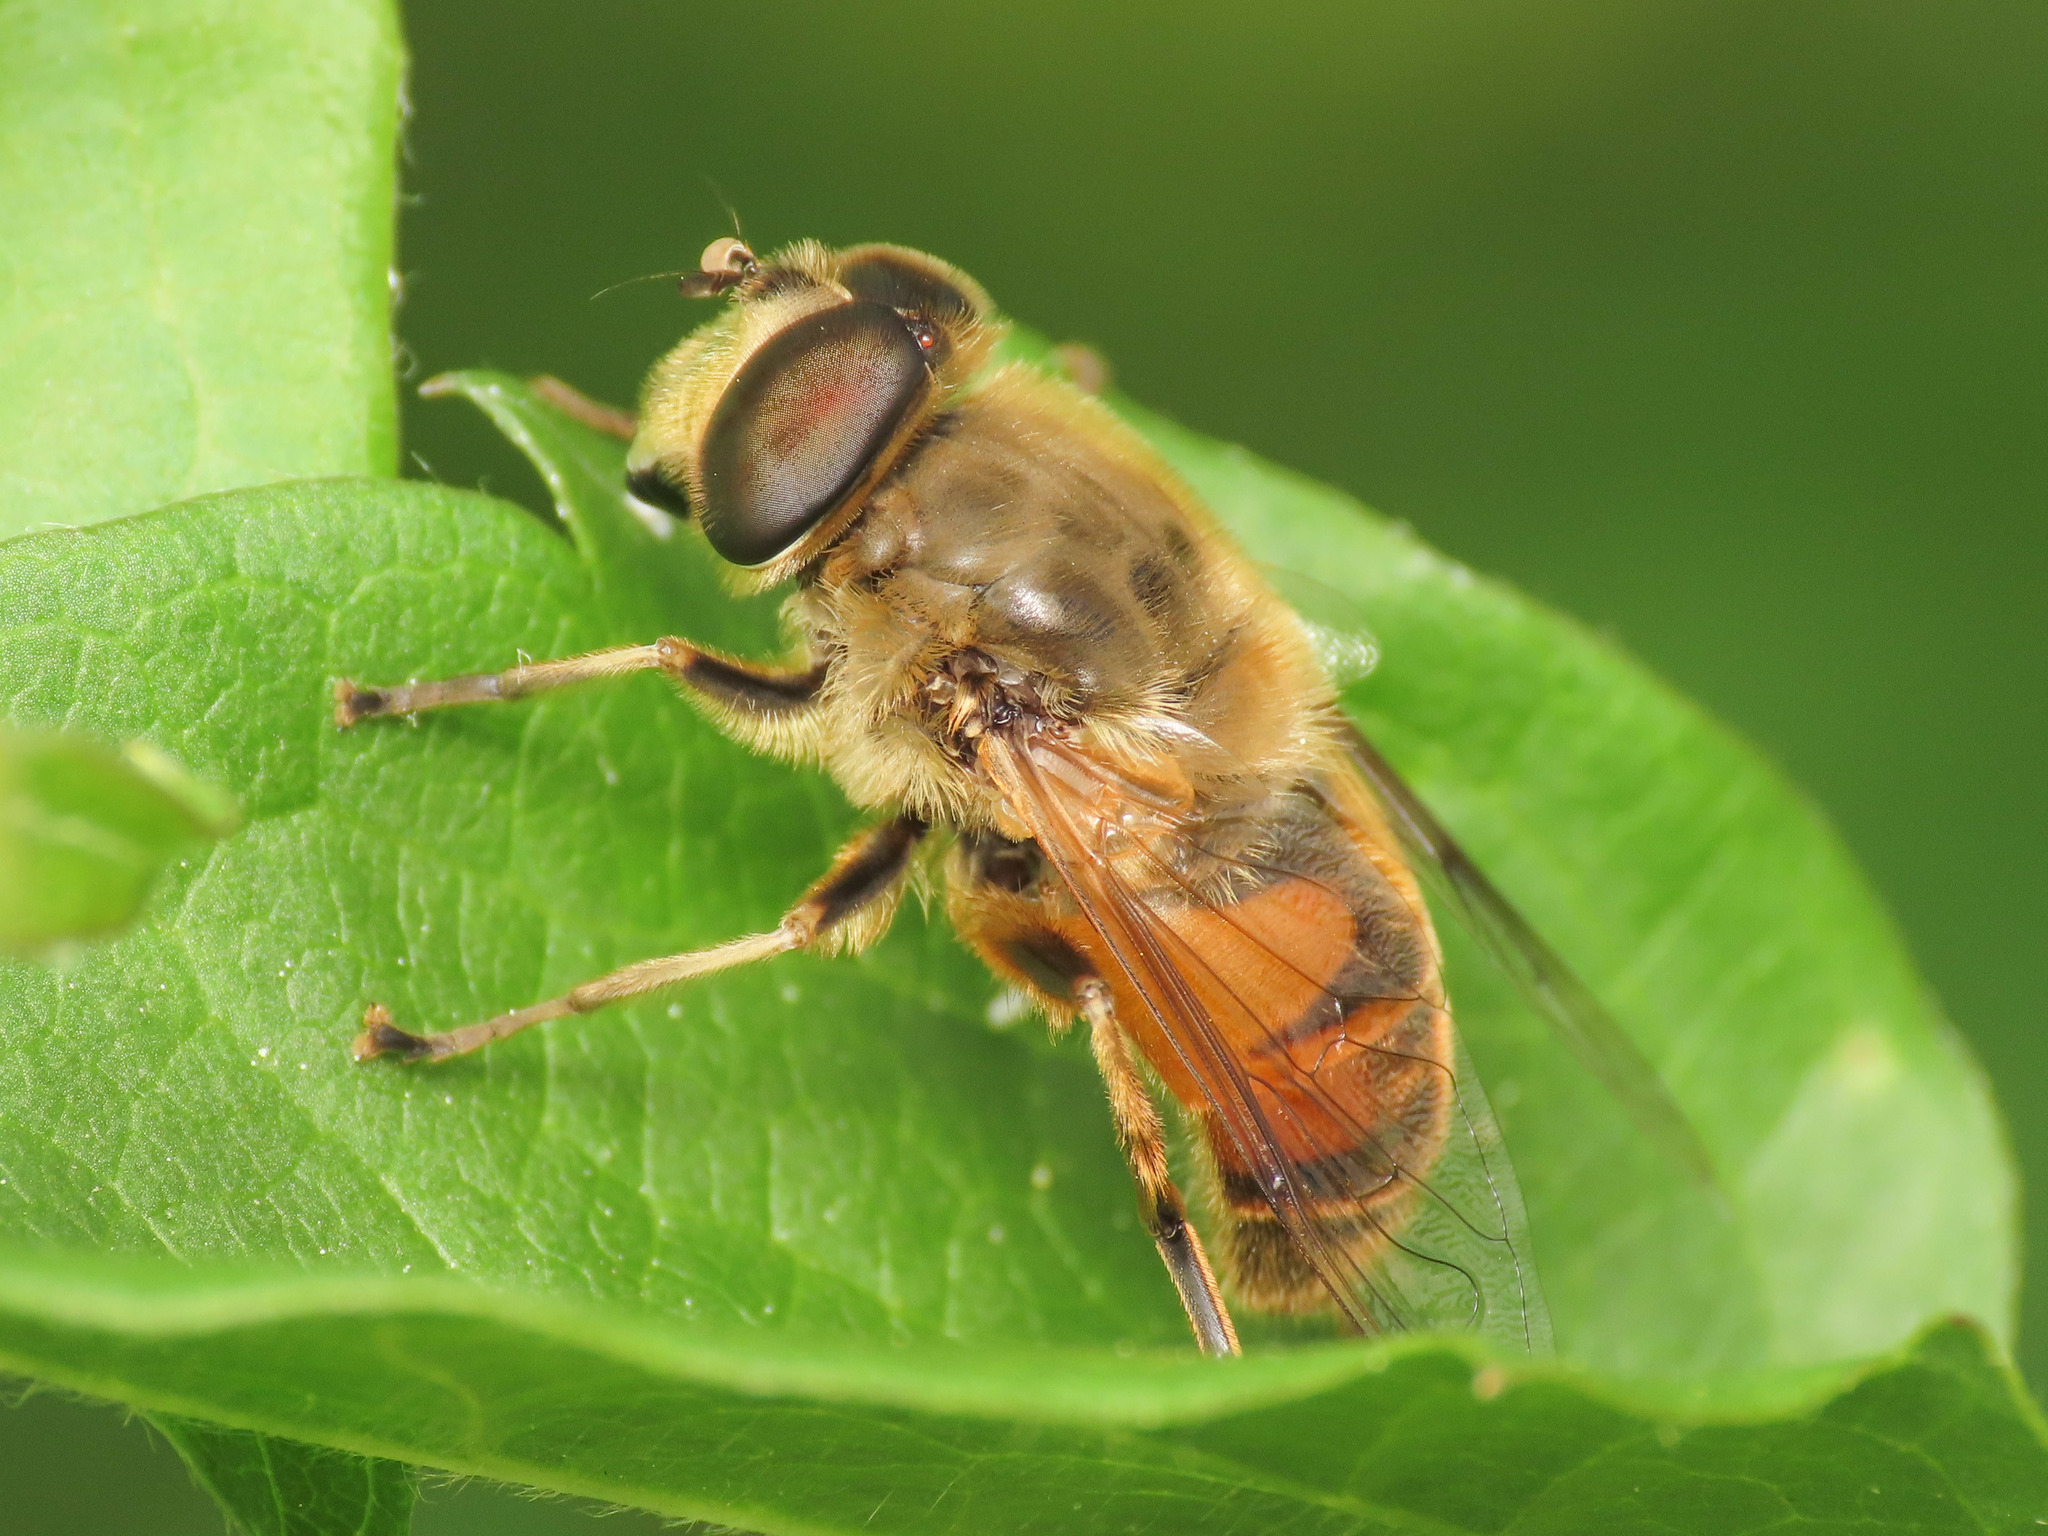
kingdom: Animalia
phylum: Arthropoda
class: Insecta
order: Diptera
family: Syrphidae
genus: Eristalis
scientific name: Eristalis tenax
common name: Drone fly
